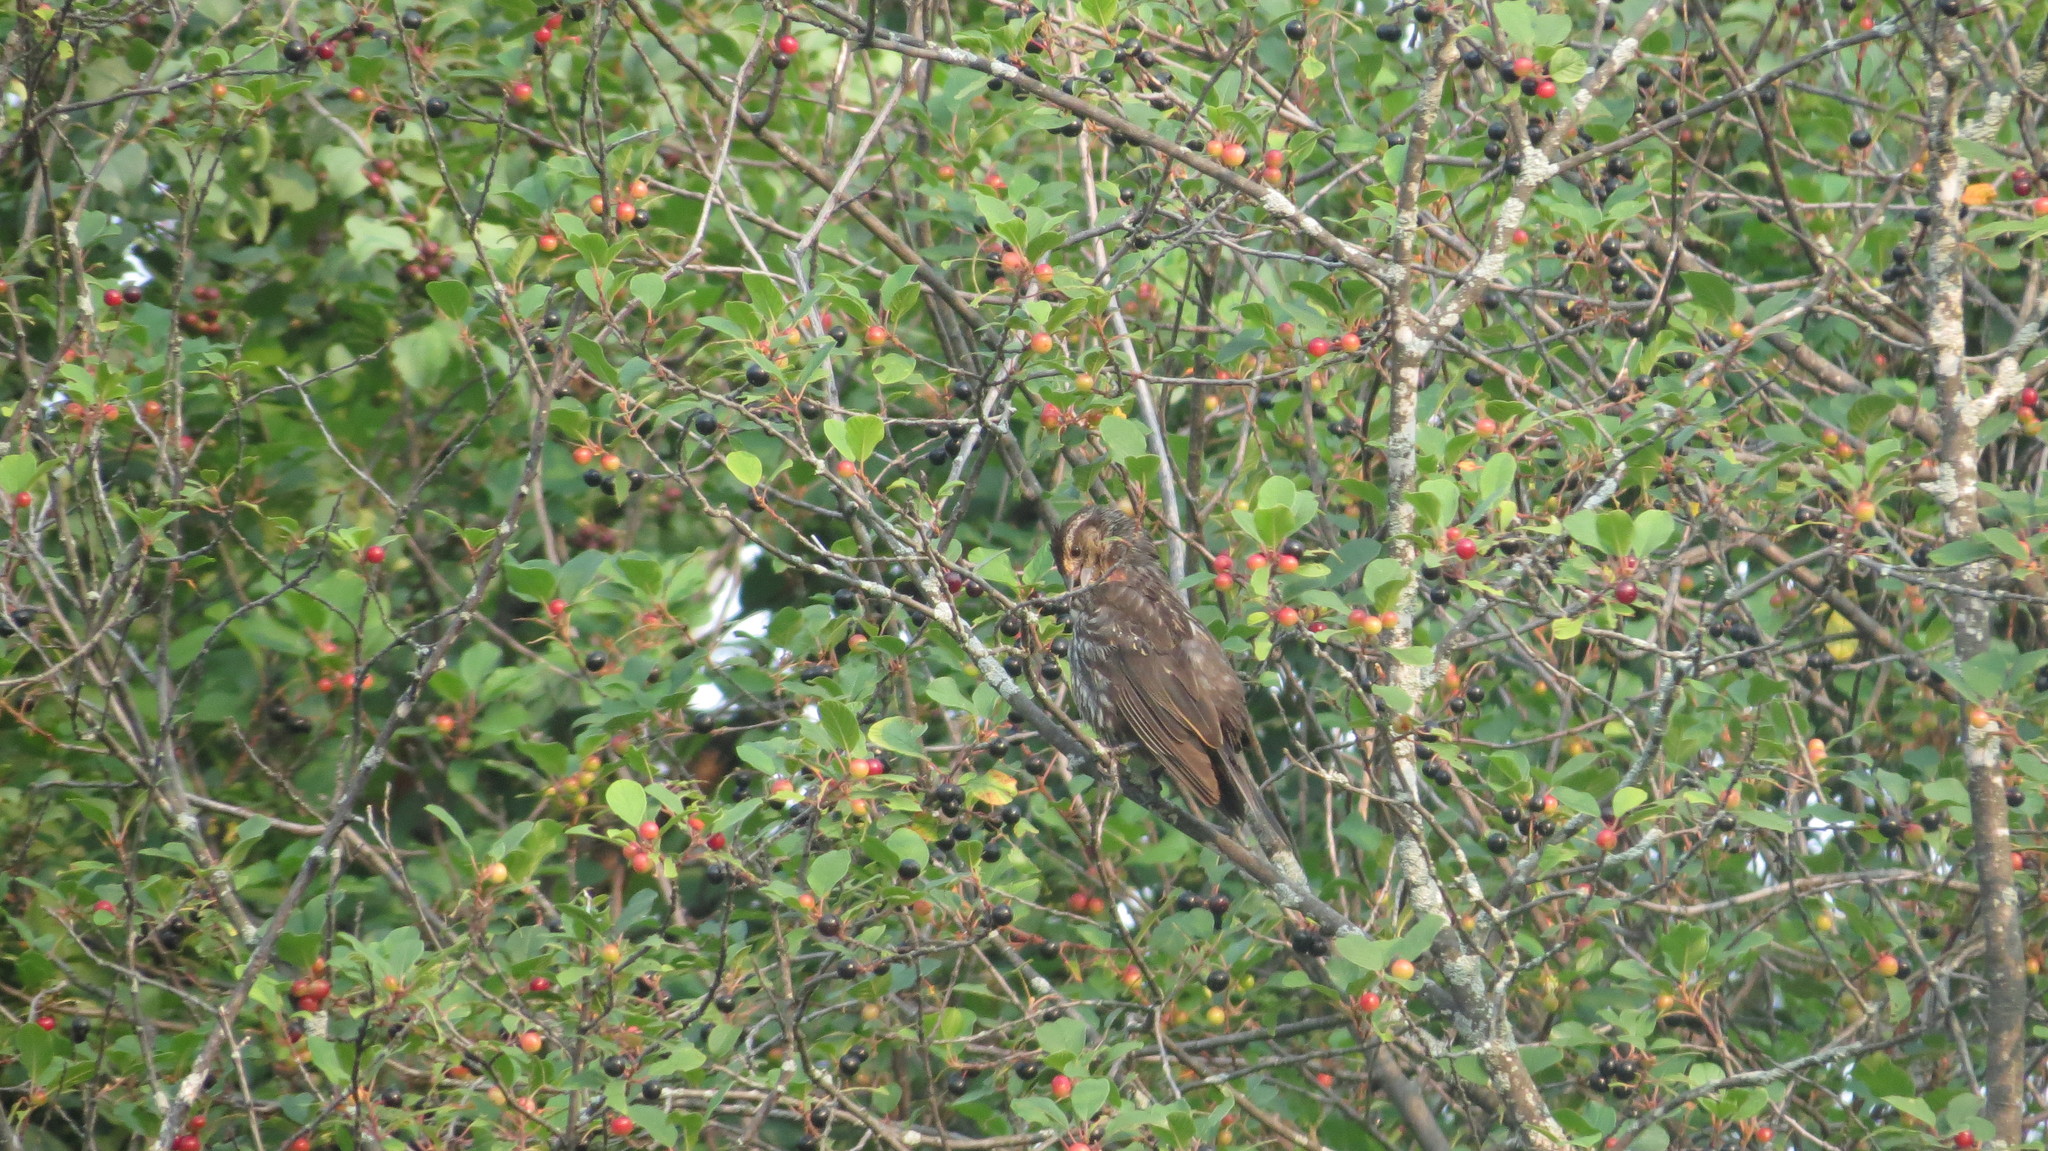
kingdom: Animalia
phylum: Chordata
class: Aves
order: Passeriformes
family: Icteridae
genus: Agelaius
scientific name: Agelaius phoeniceus
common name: Red-winged blackbird
